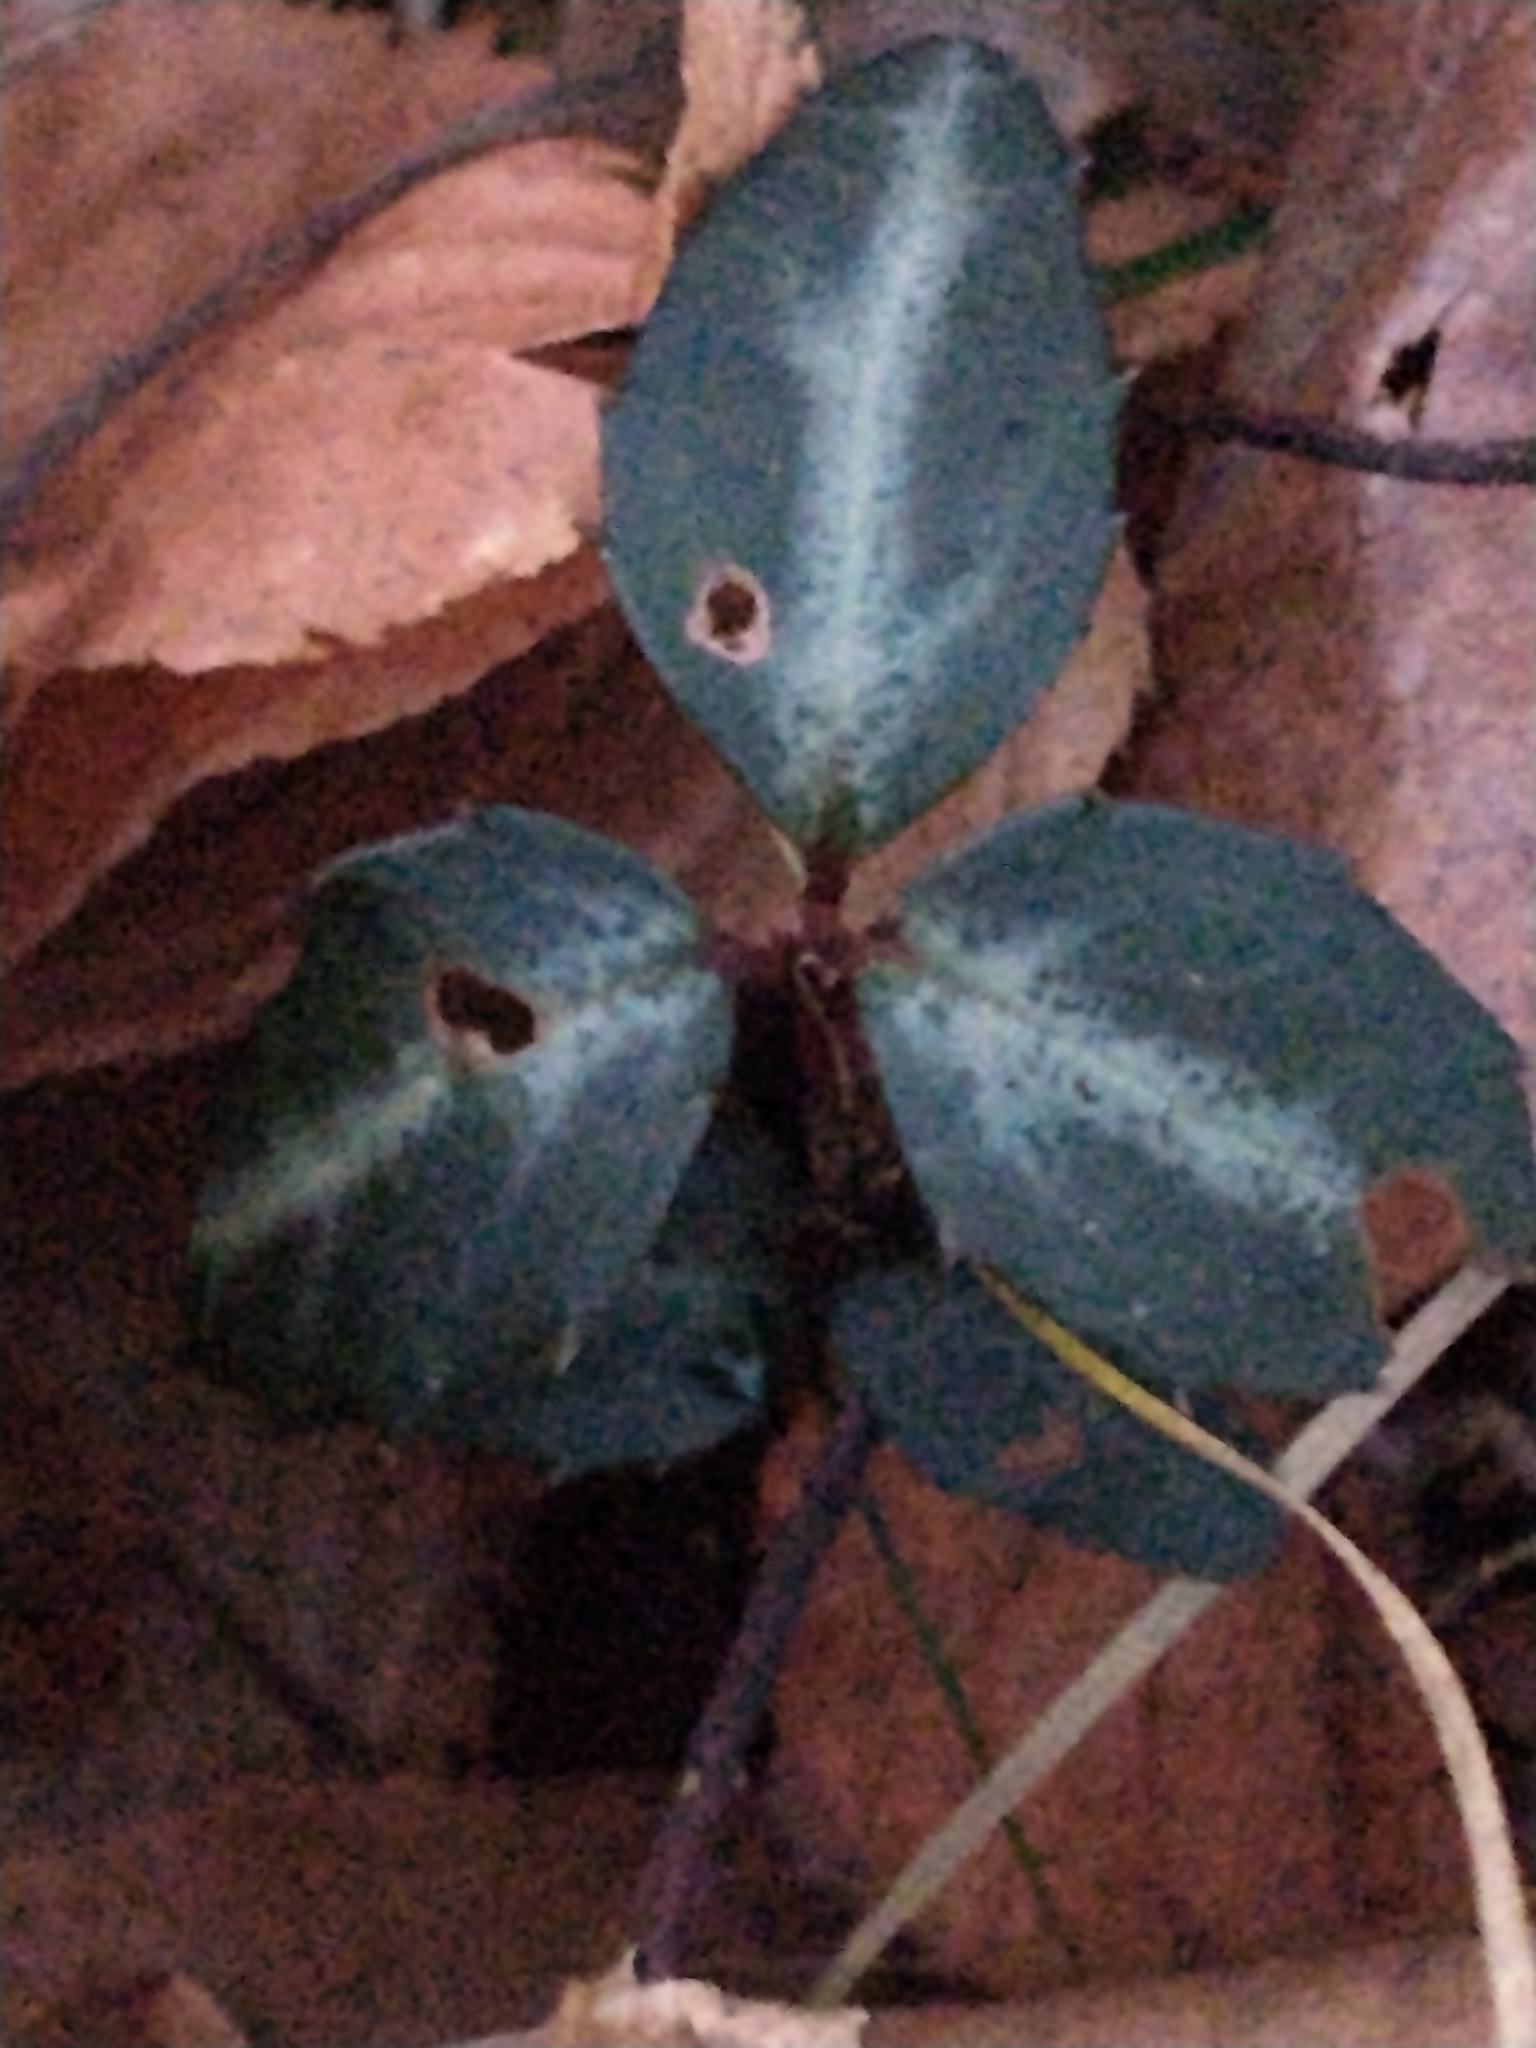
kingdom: Plantae
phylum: Tracheophyta
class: Magnoliopsida
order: Ericales
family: Ericaceae
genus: Chimaphila
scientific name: Chimaphila maculata
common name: Spotted pipsissewa
